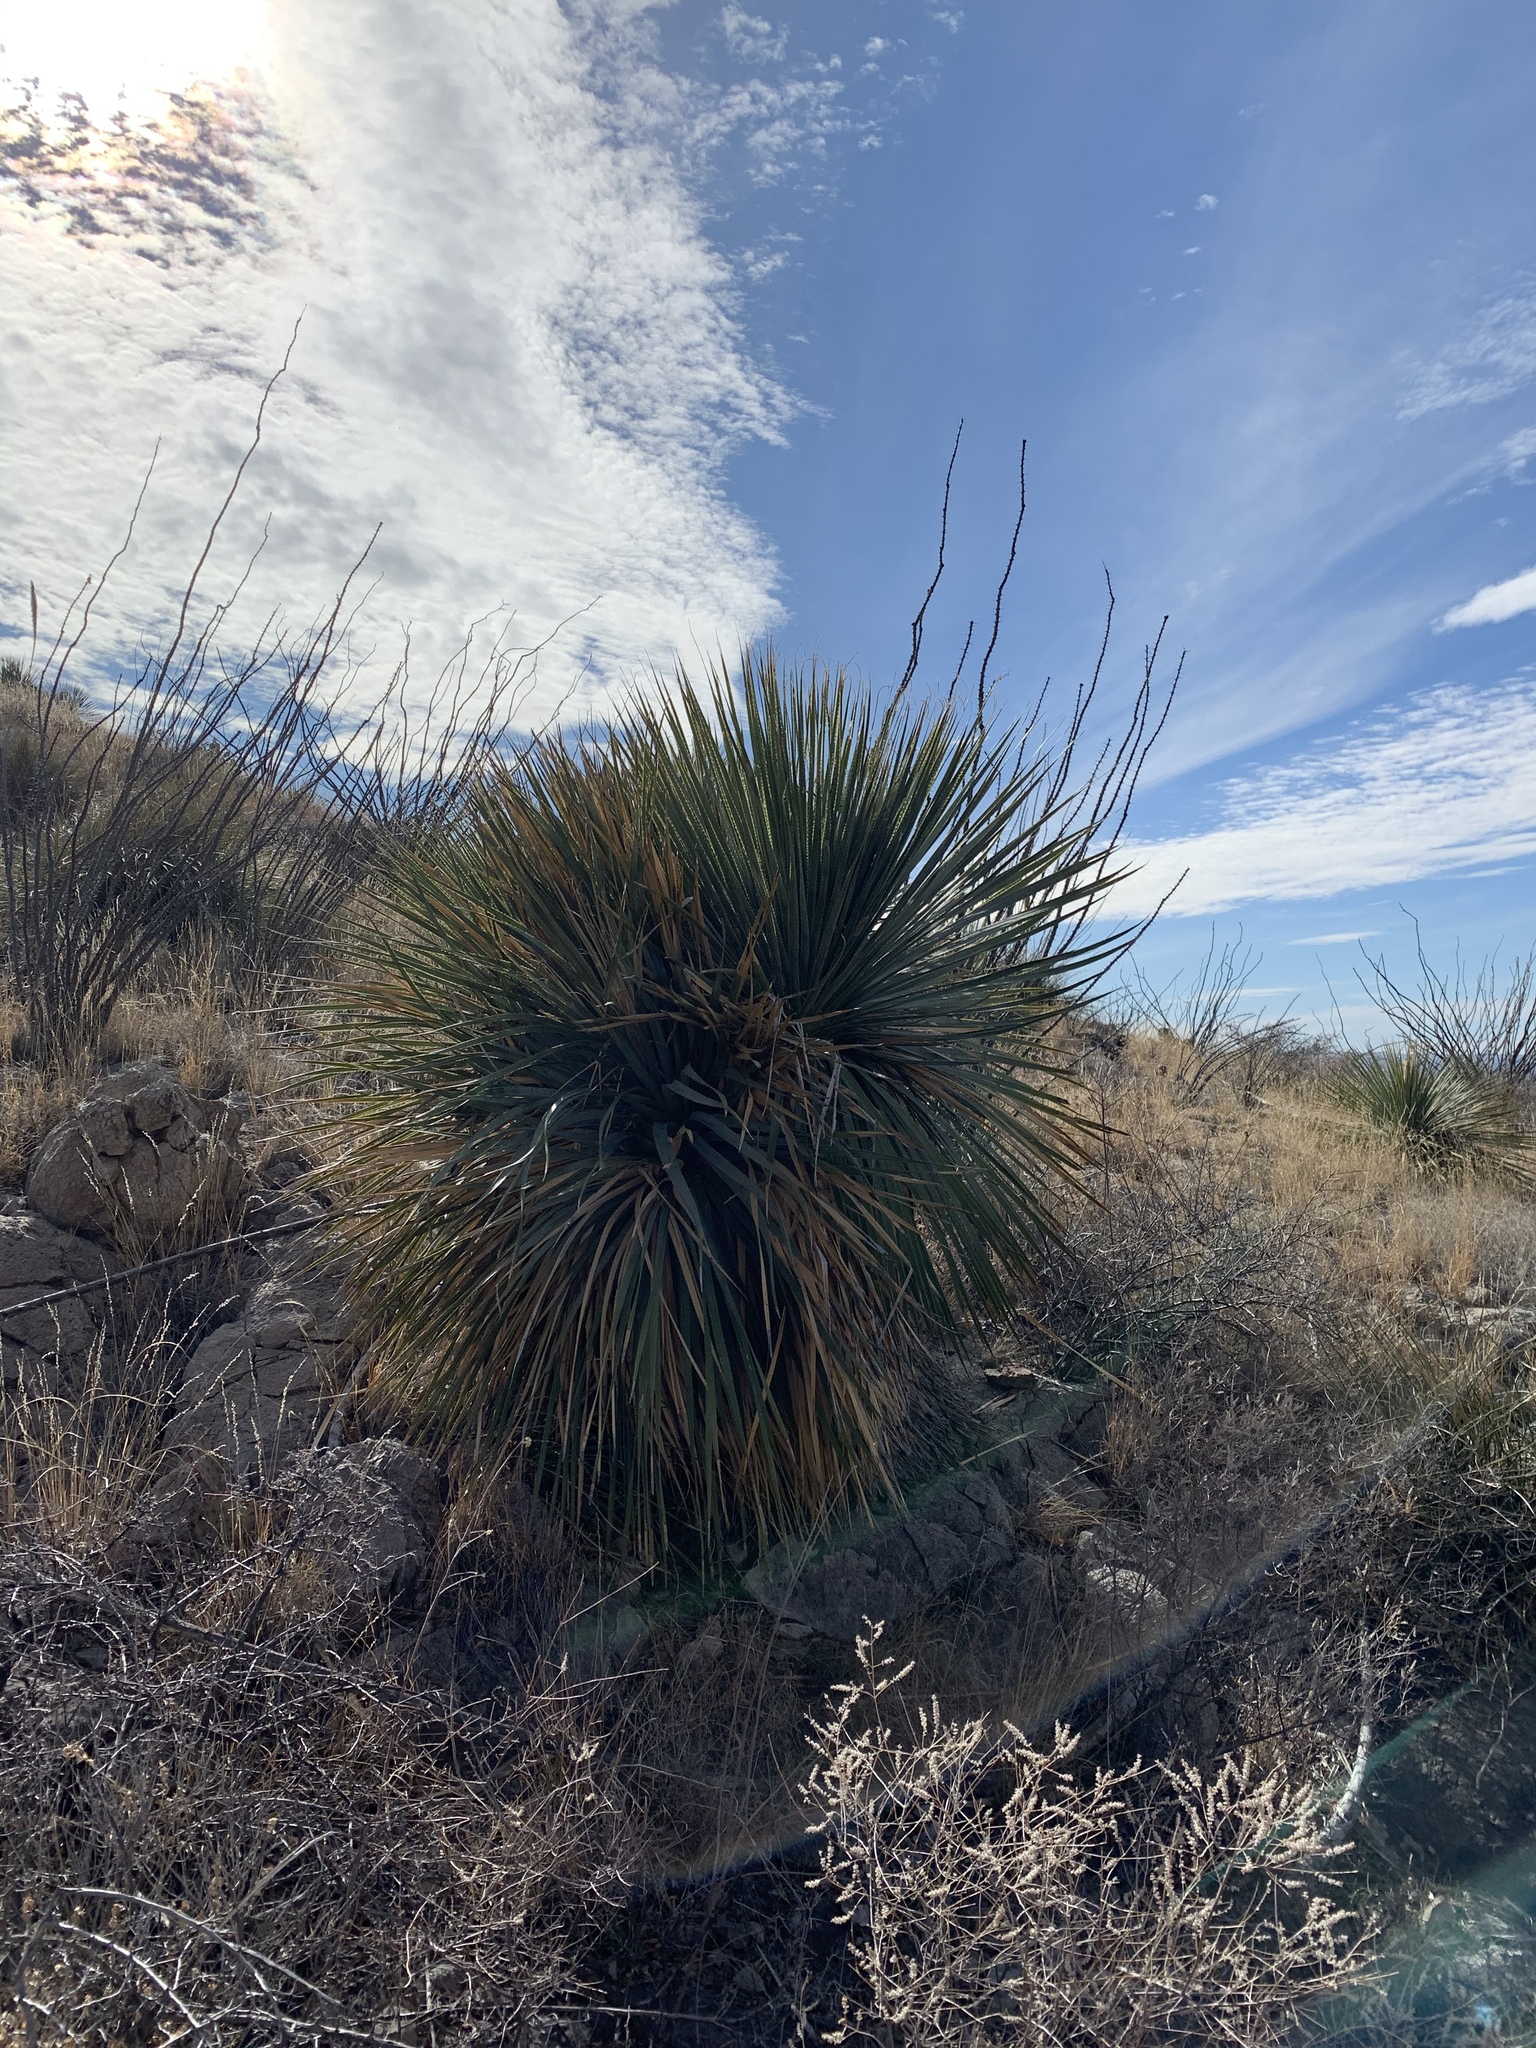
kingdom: Plantae
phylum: Tracheophyta
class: Liliopsida
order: Asparagales
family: Asparagaceae
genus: Yucca
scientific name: Yucca elata
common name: Palmella
